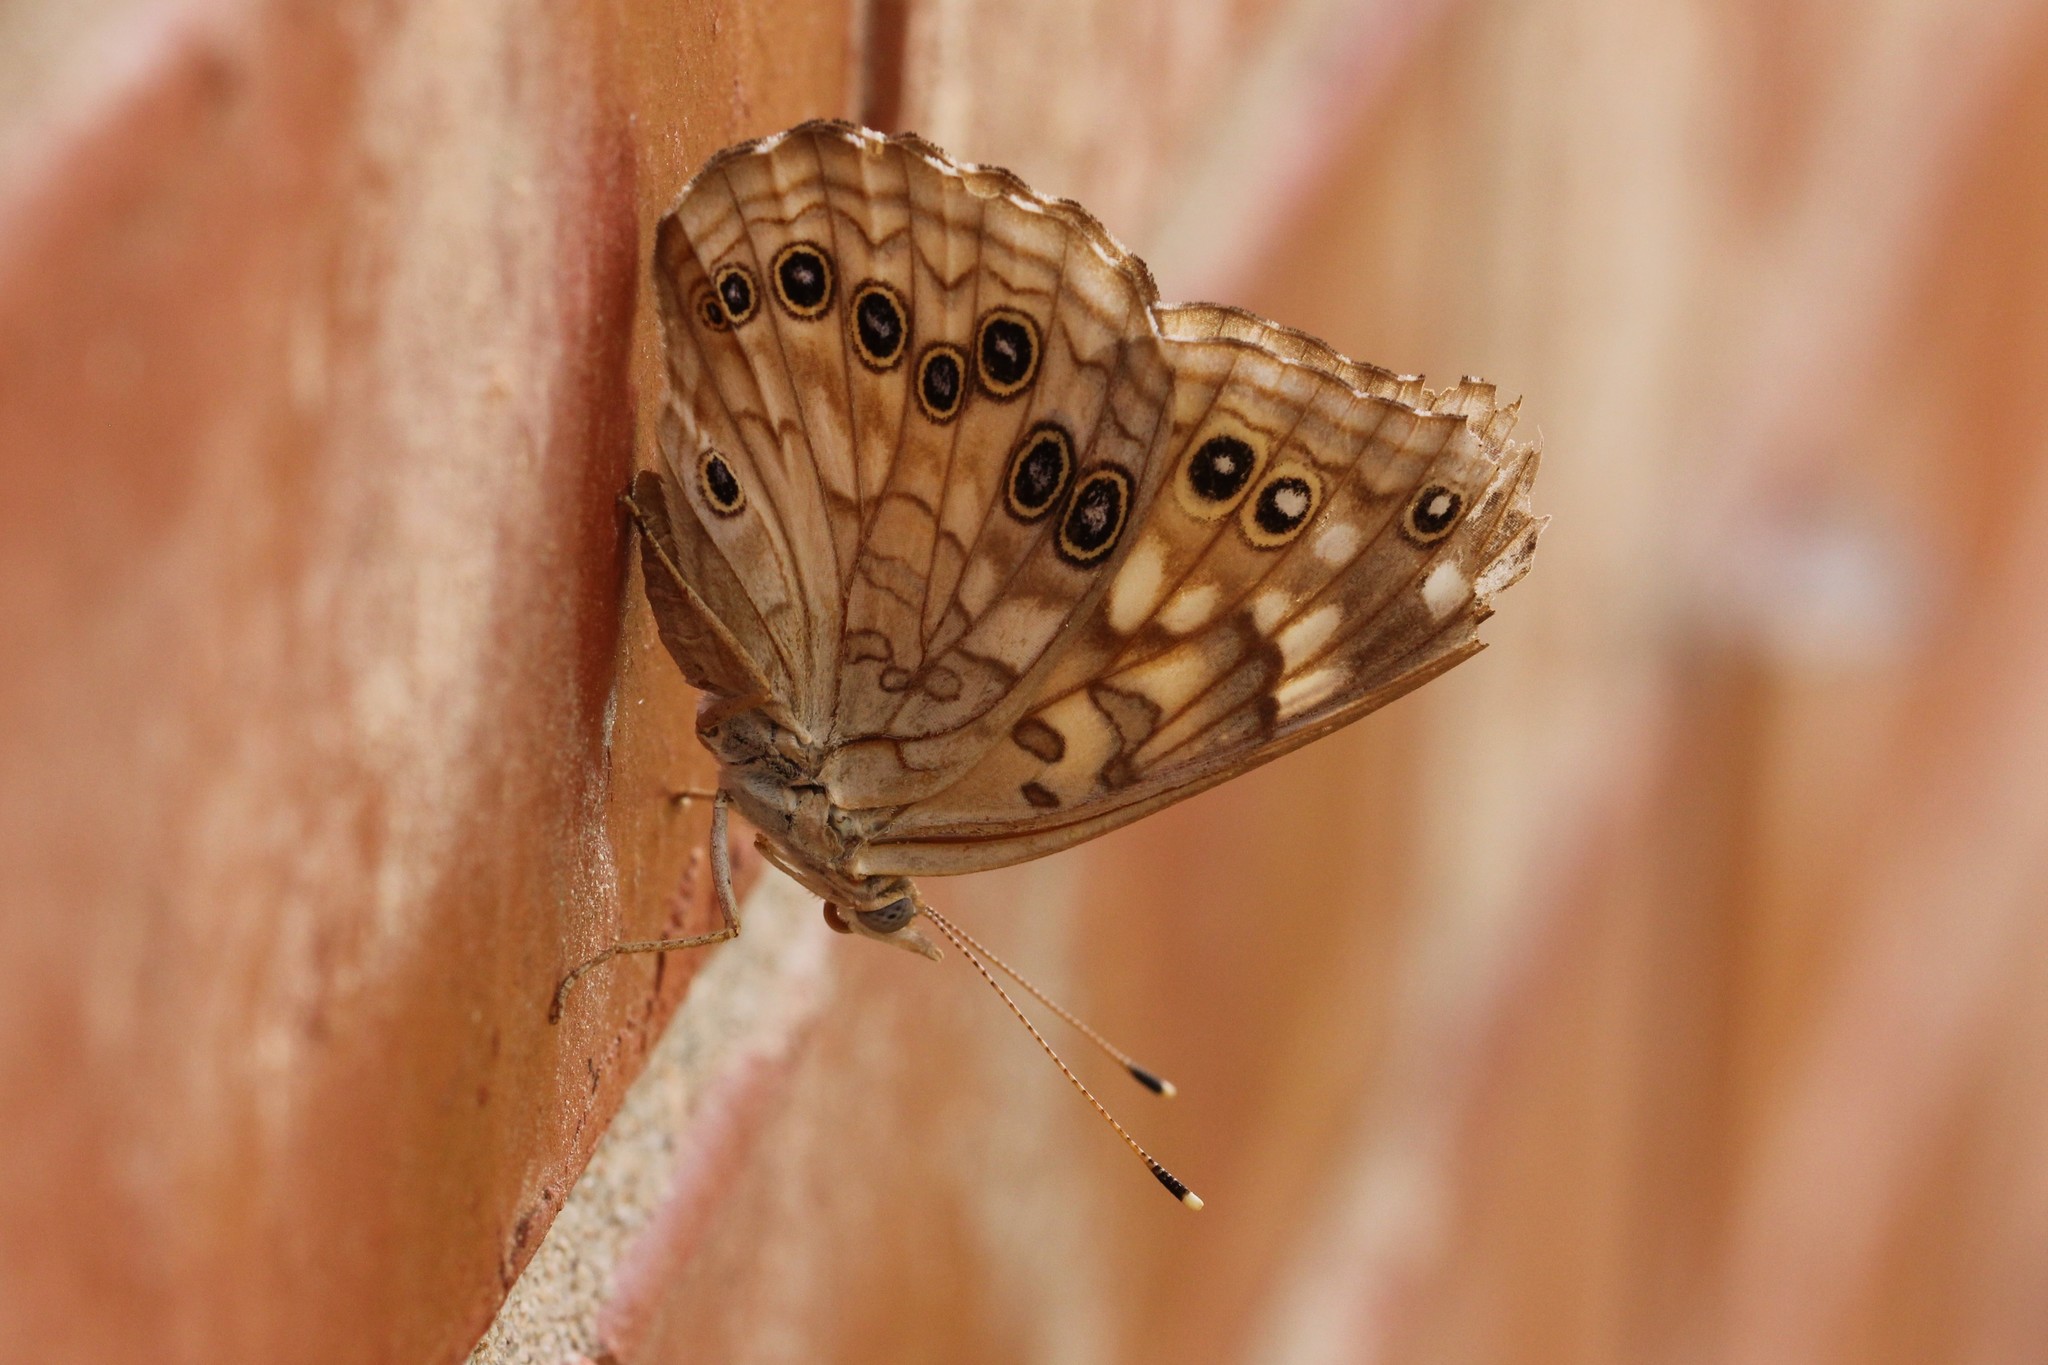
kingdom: Animalia
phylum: Arthropoda
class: Insecta
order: Lepidoptera
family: Nymphalidae
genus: Asterocampa
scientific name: Asterocampa celtis
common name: Hackberry emperor
